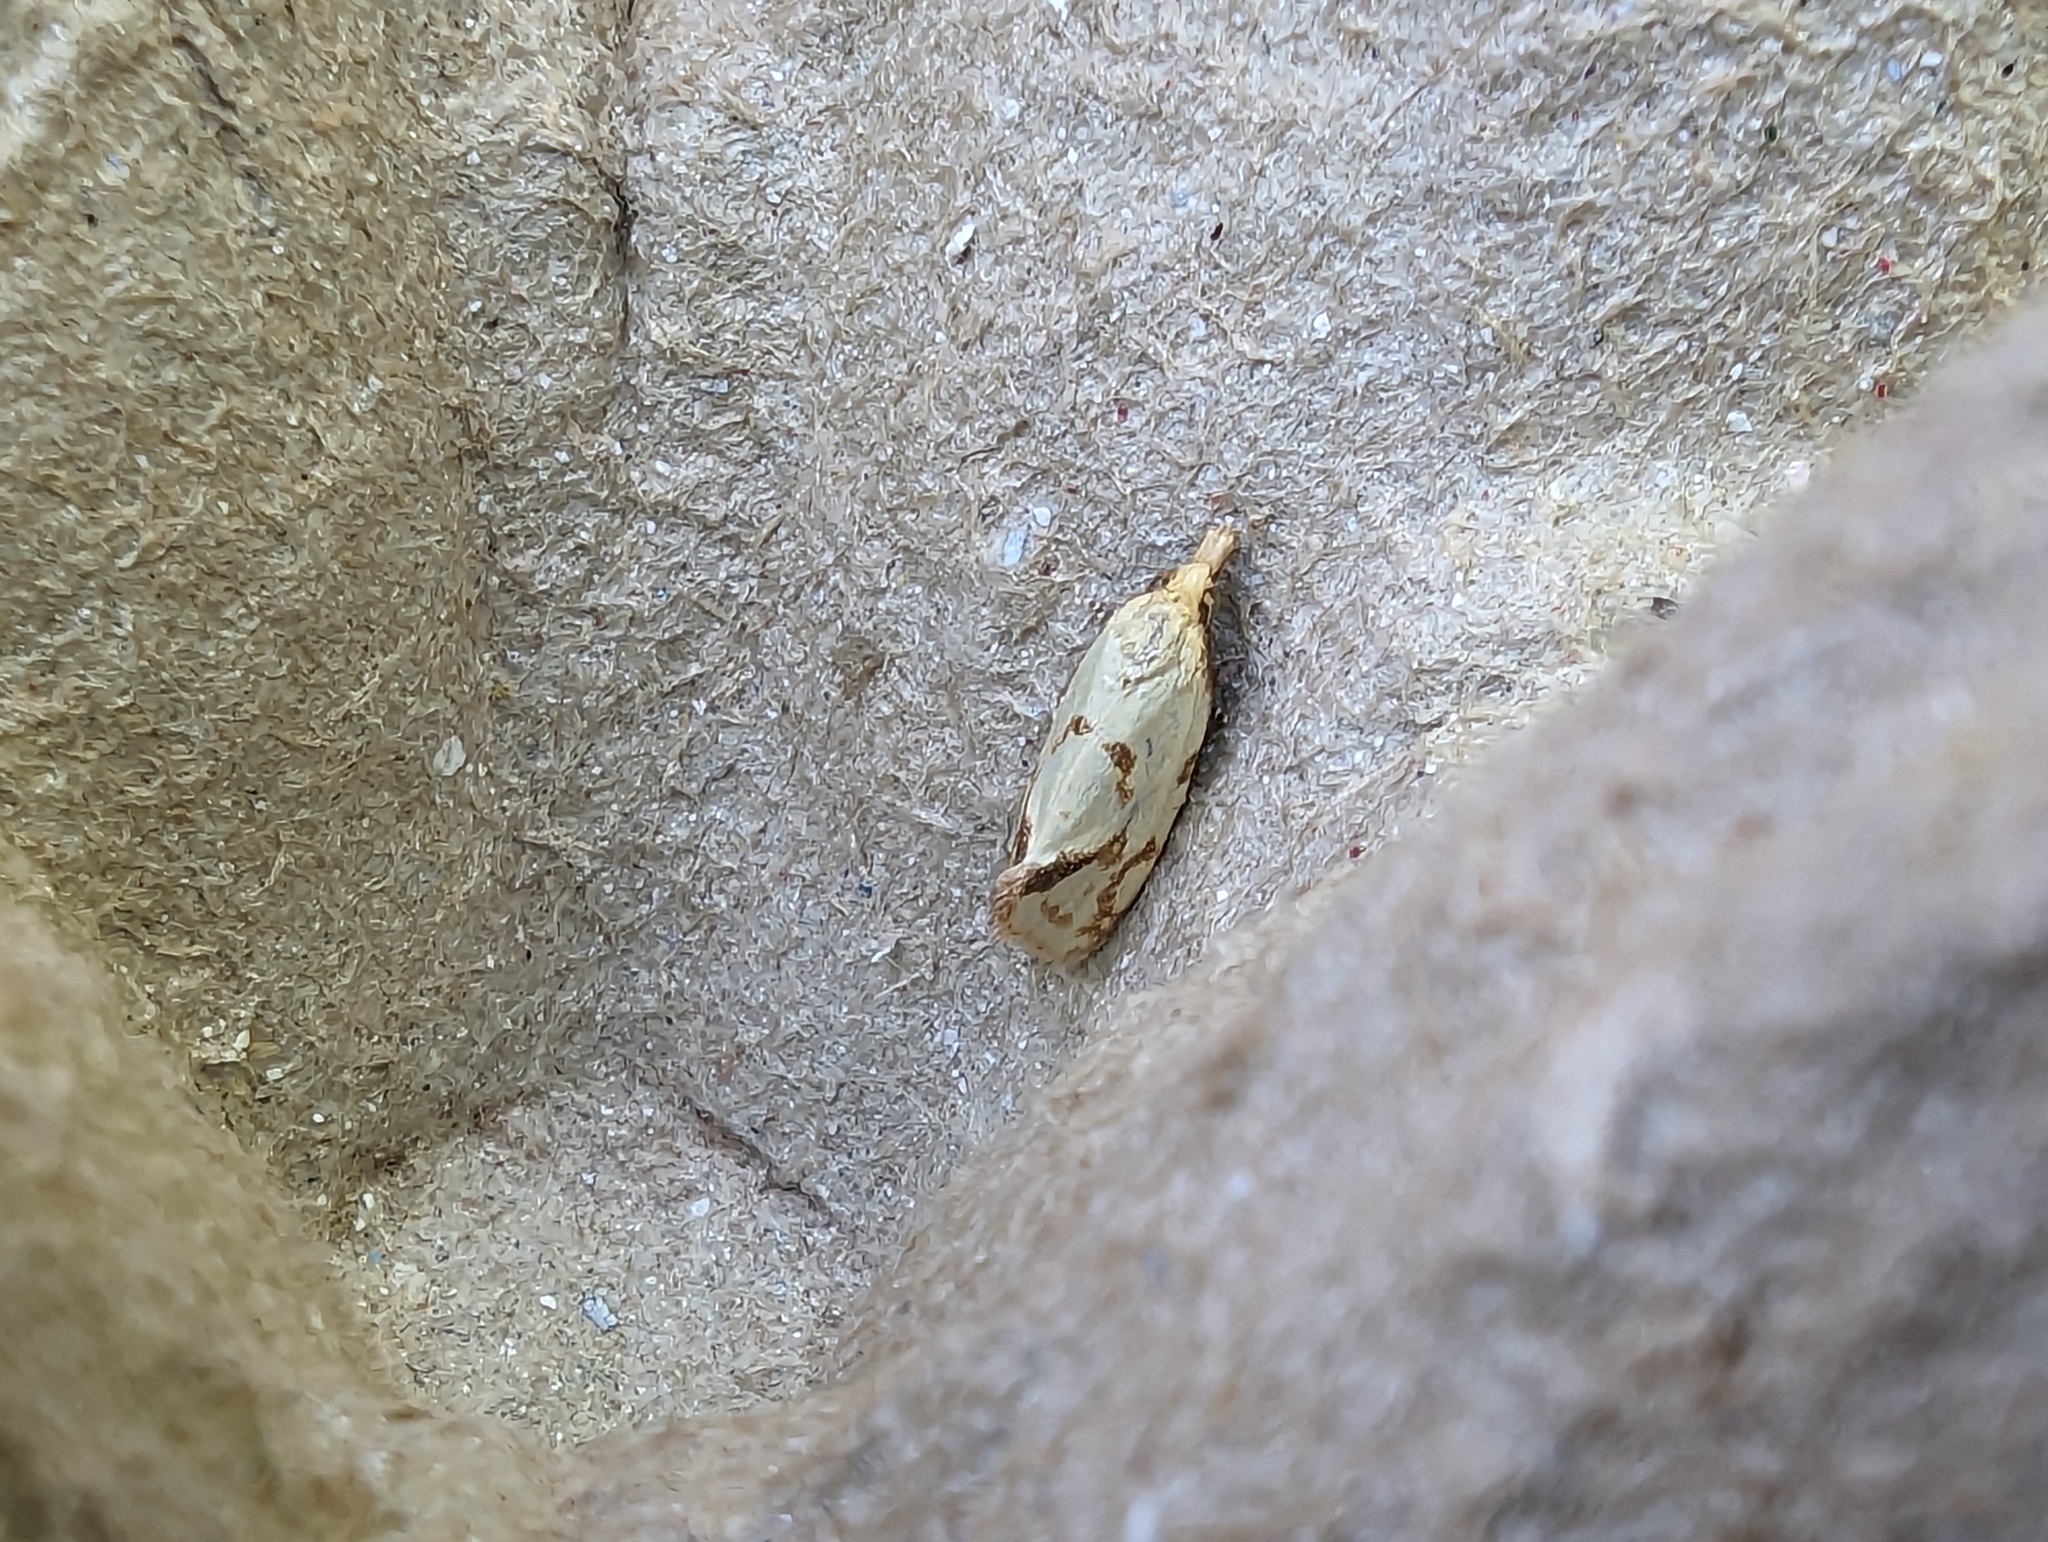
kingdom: Animalia
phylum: Arthropoda
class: Insecta
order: Lepidoptera
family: Tortricidae
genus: Agapeta
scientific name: Agapeta hamana
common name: Common yellow conch
